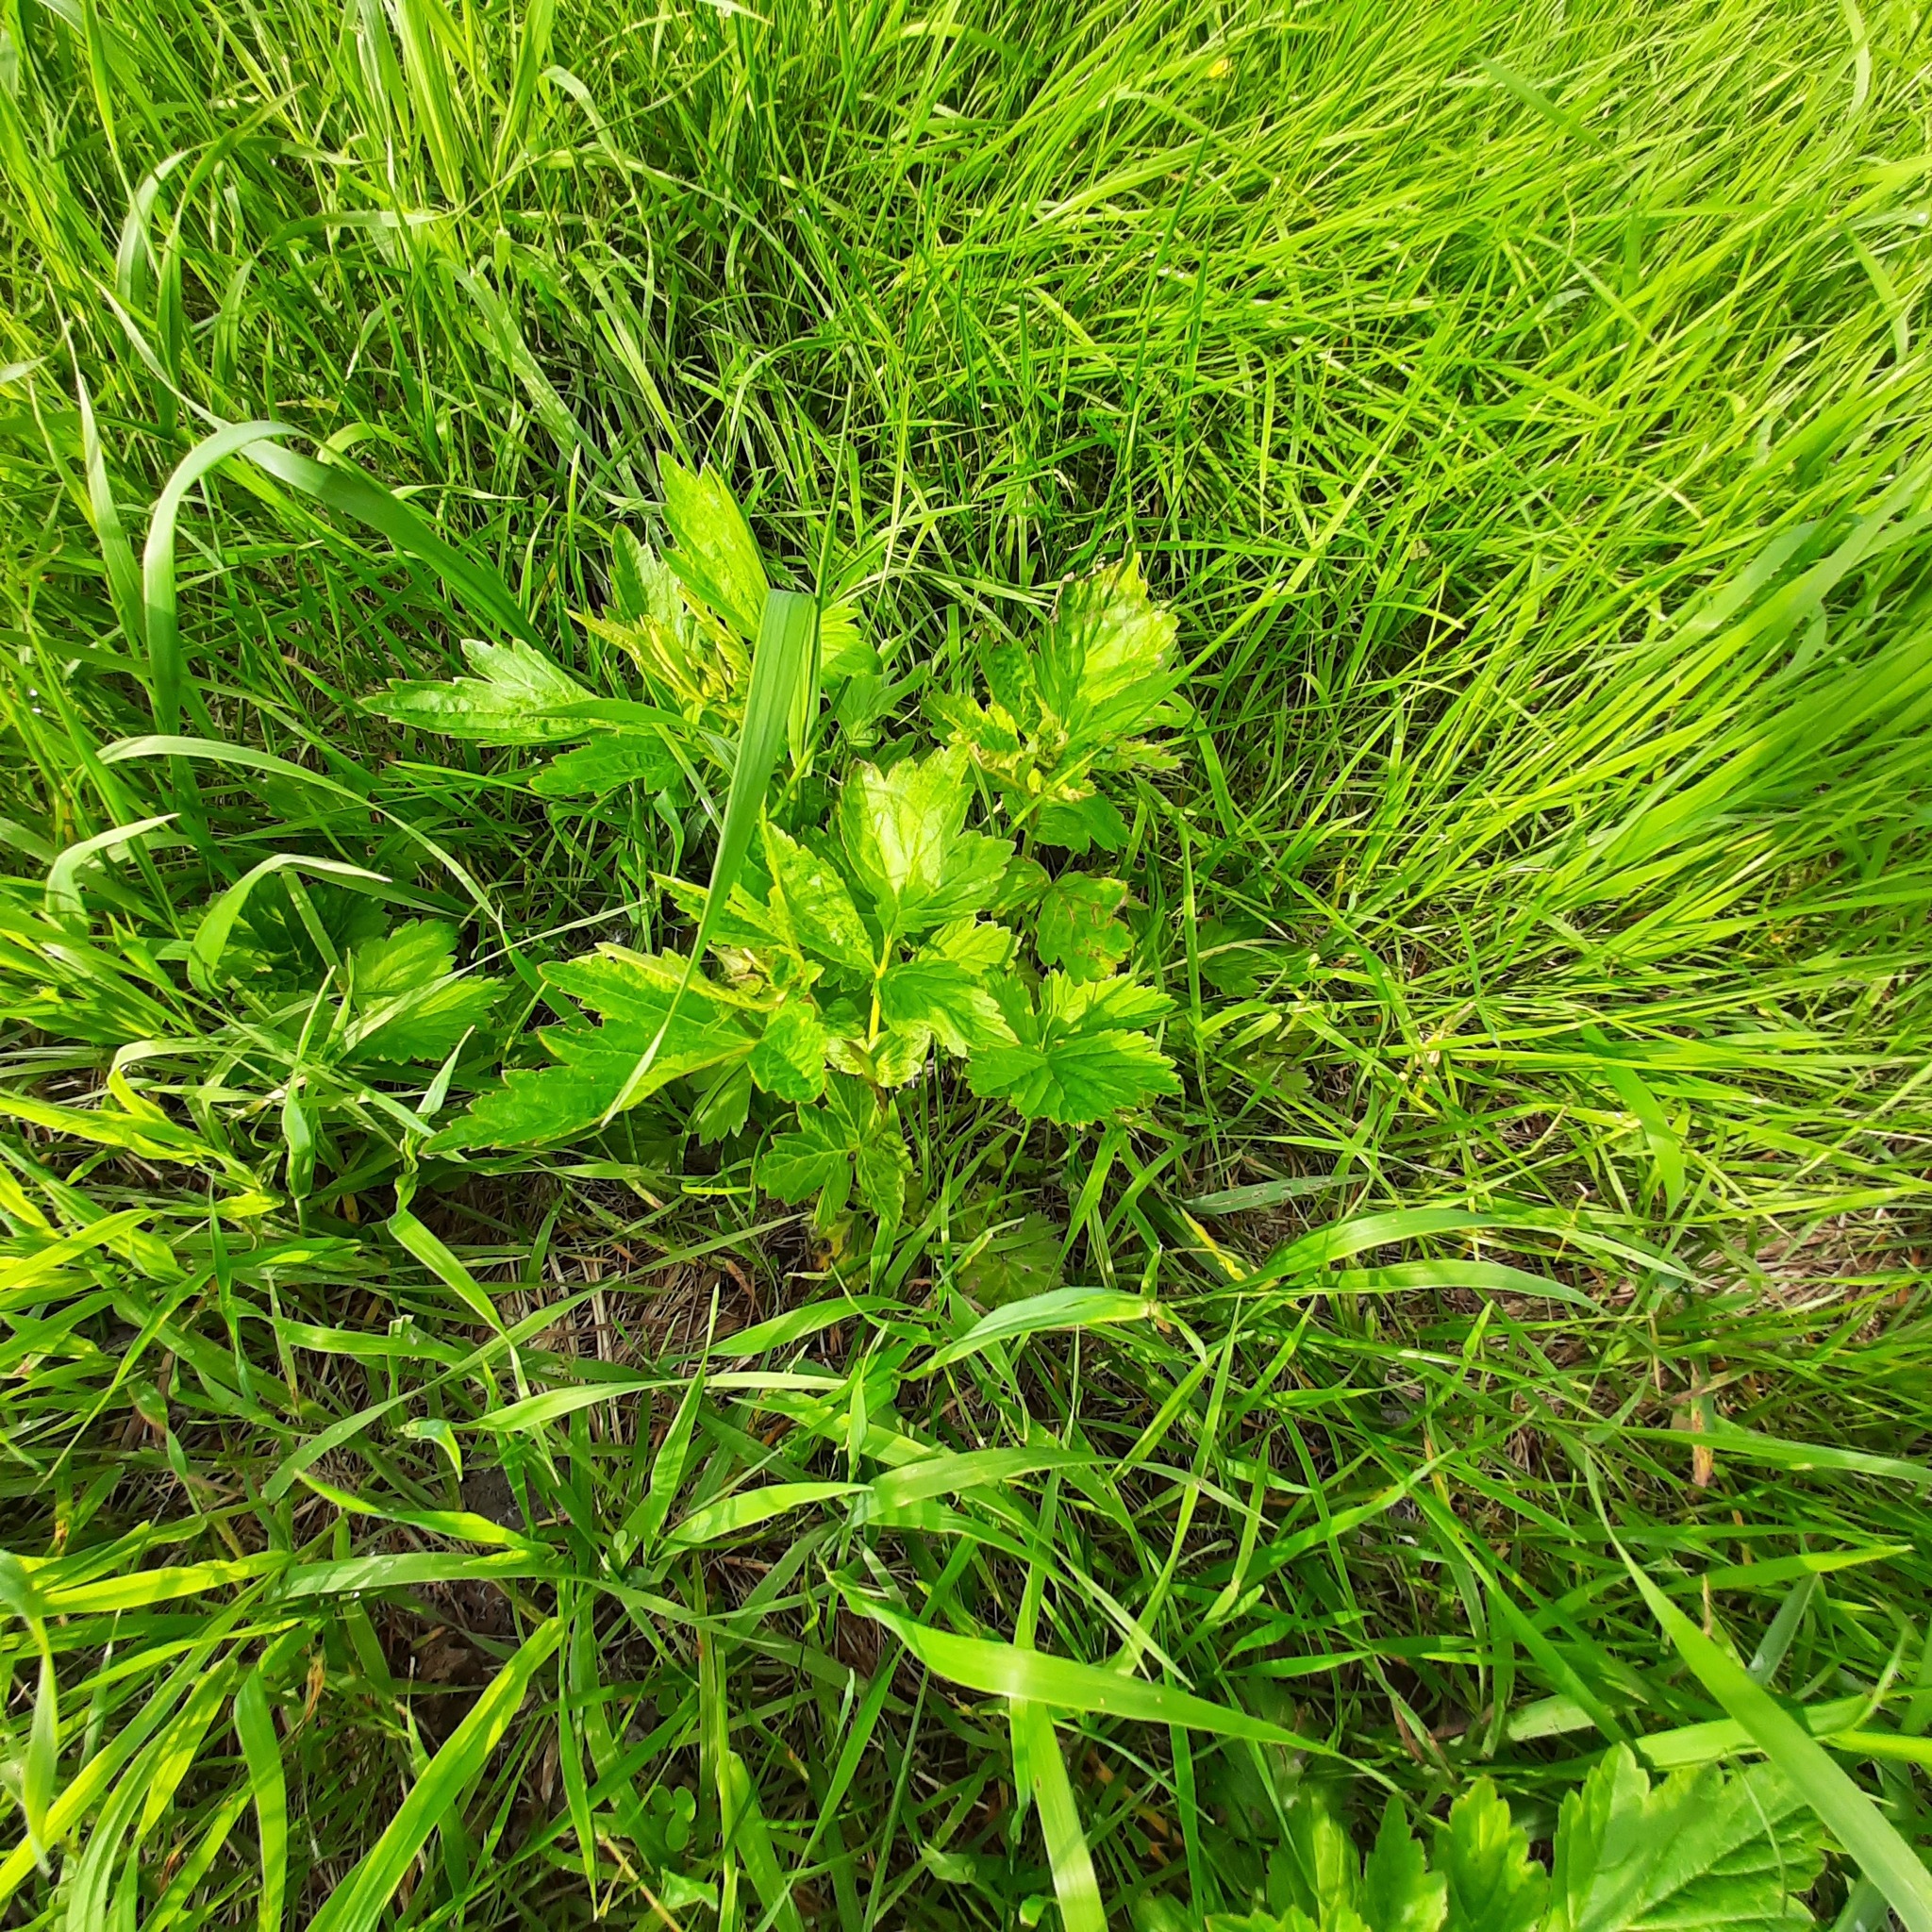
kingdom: Plantae
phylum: Tracheophyta
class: Magnoliopsida
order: Rosales
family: Rosaceae
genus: Geum
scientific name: Geum aleppicum
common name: Yellow avens
